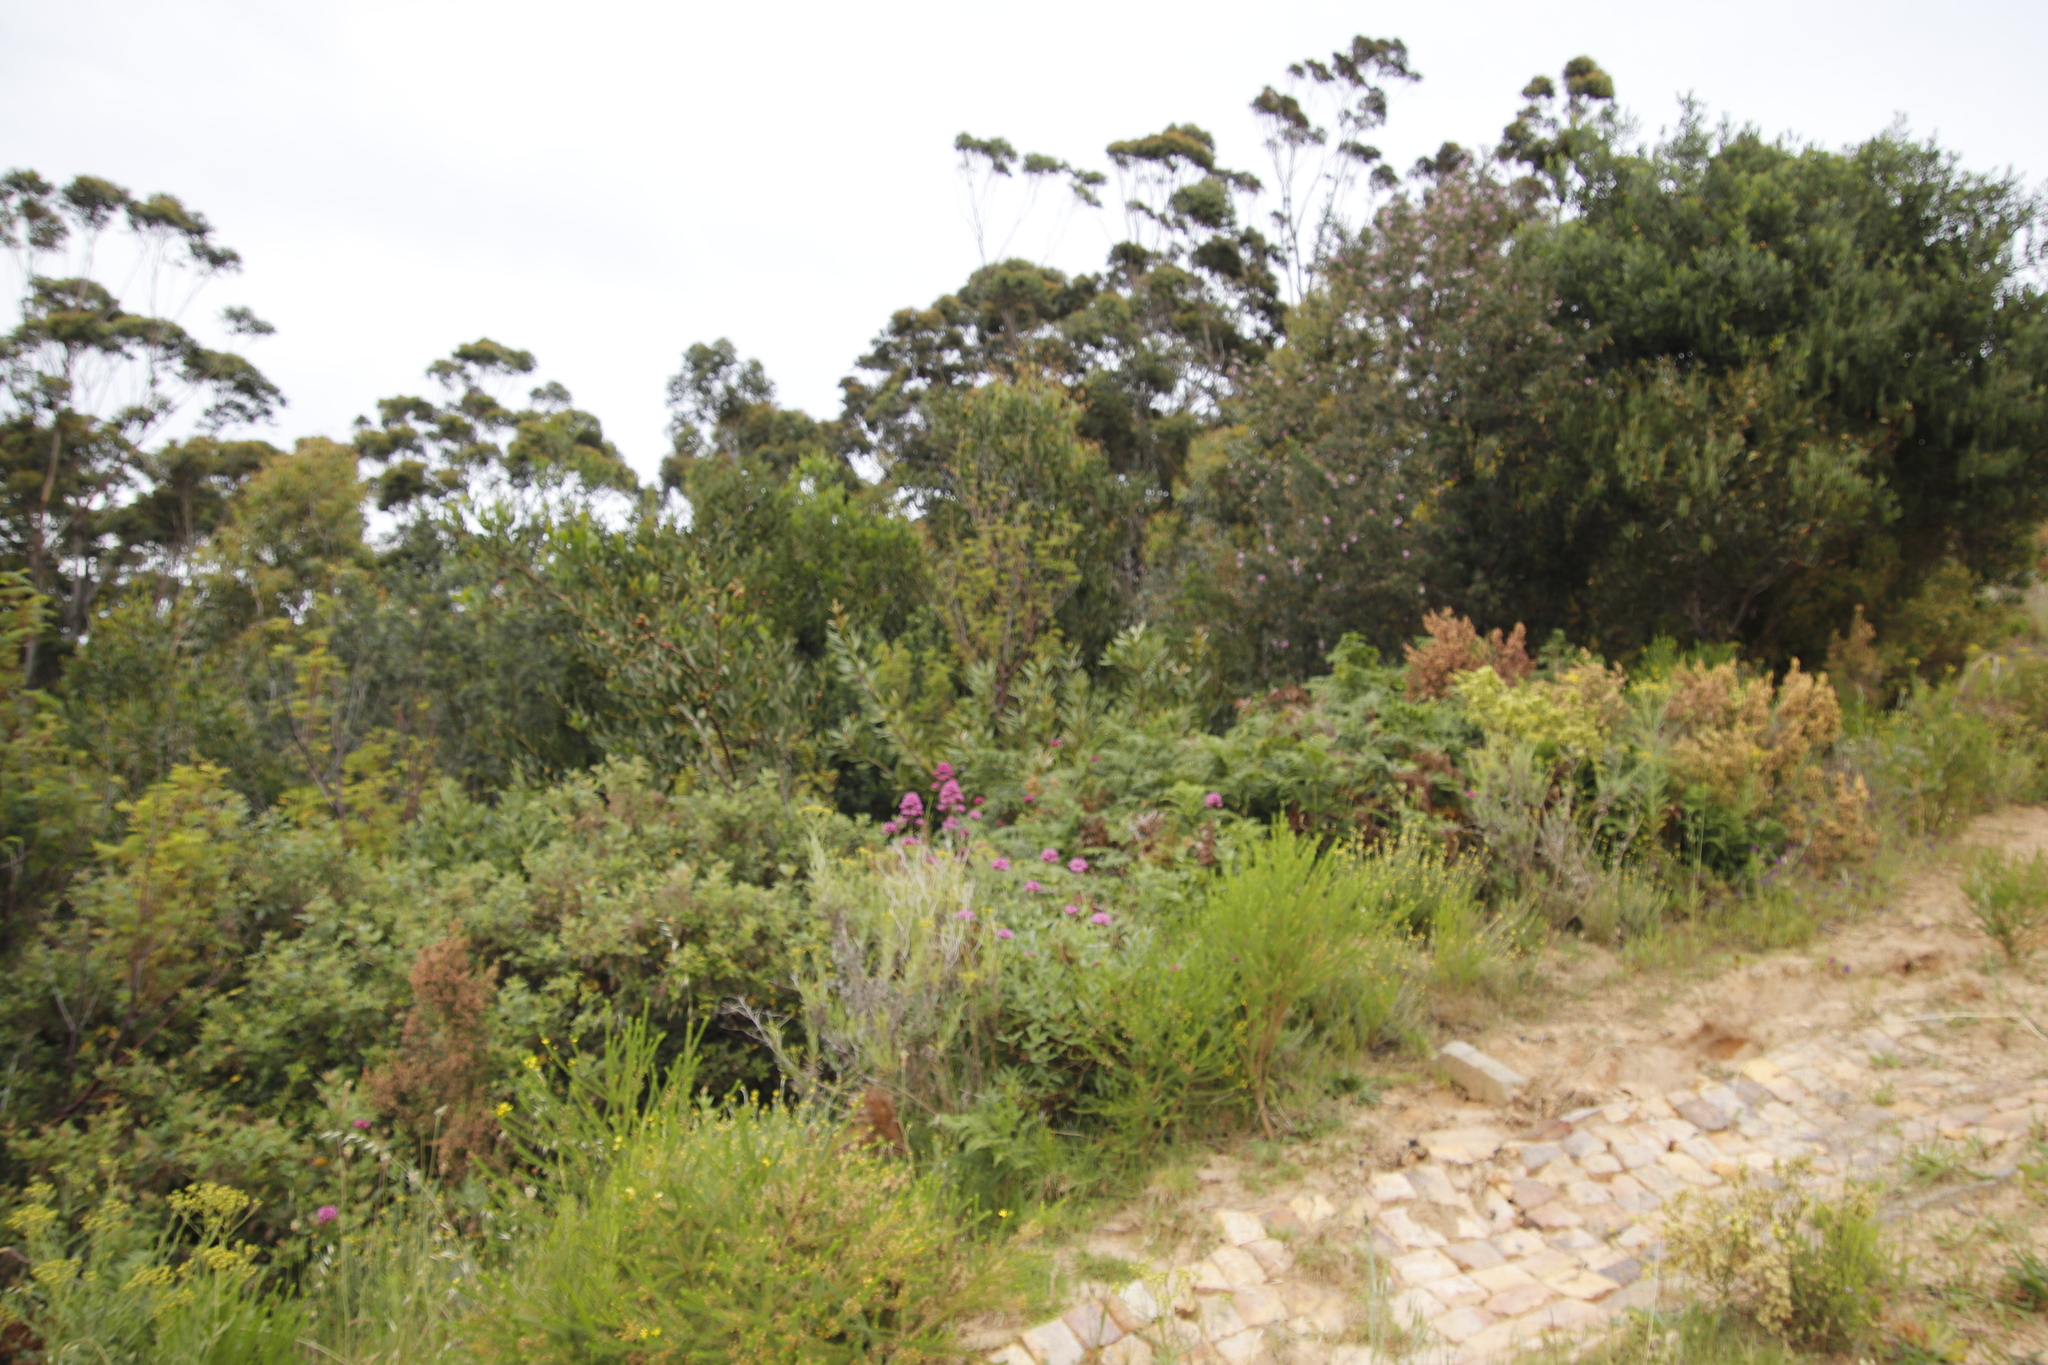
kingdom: Plantae
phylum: Tracheophyta
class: Magnoliopsida
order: Dipsacales
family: Caprifoliaceae
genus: Centranthus
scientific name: Centranthus ruber
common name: Red valerian
